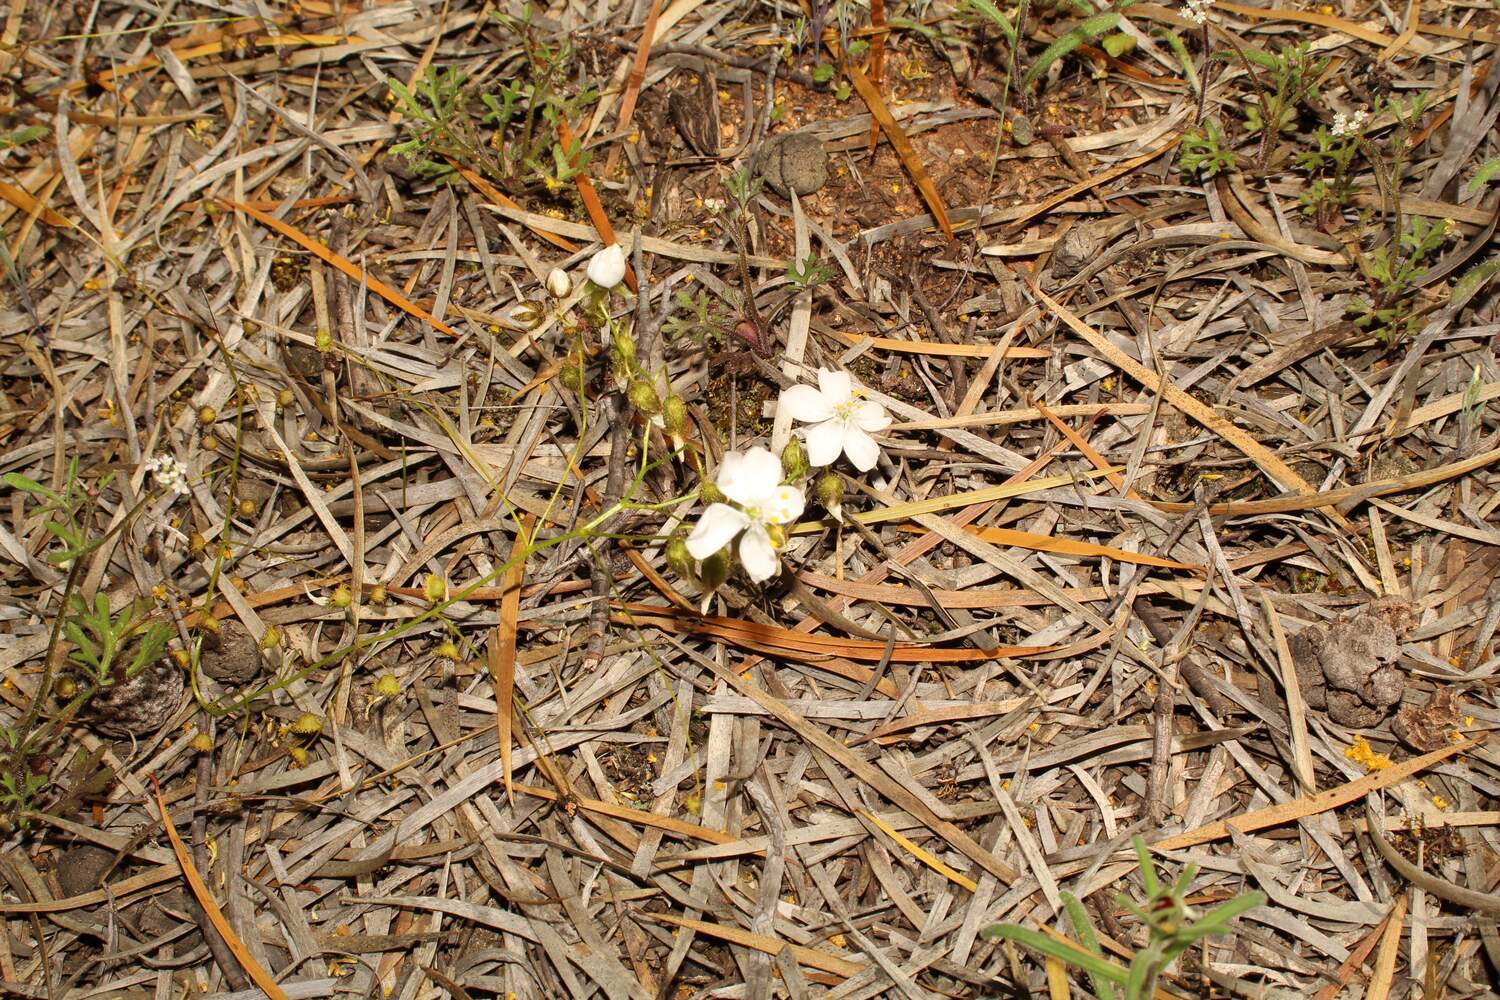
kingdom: Plantae
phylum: Tracheophyta
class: Magnoliopsida
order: Caryophyllales
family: Droseraceae
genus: Drosera
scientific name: Drosera macrantha
